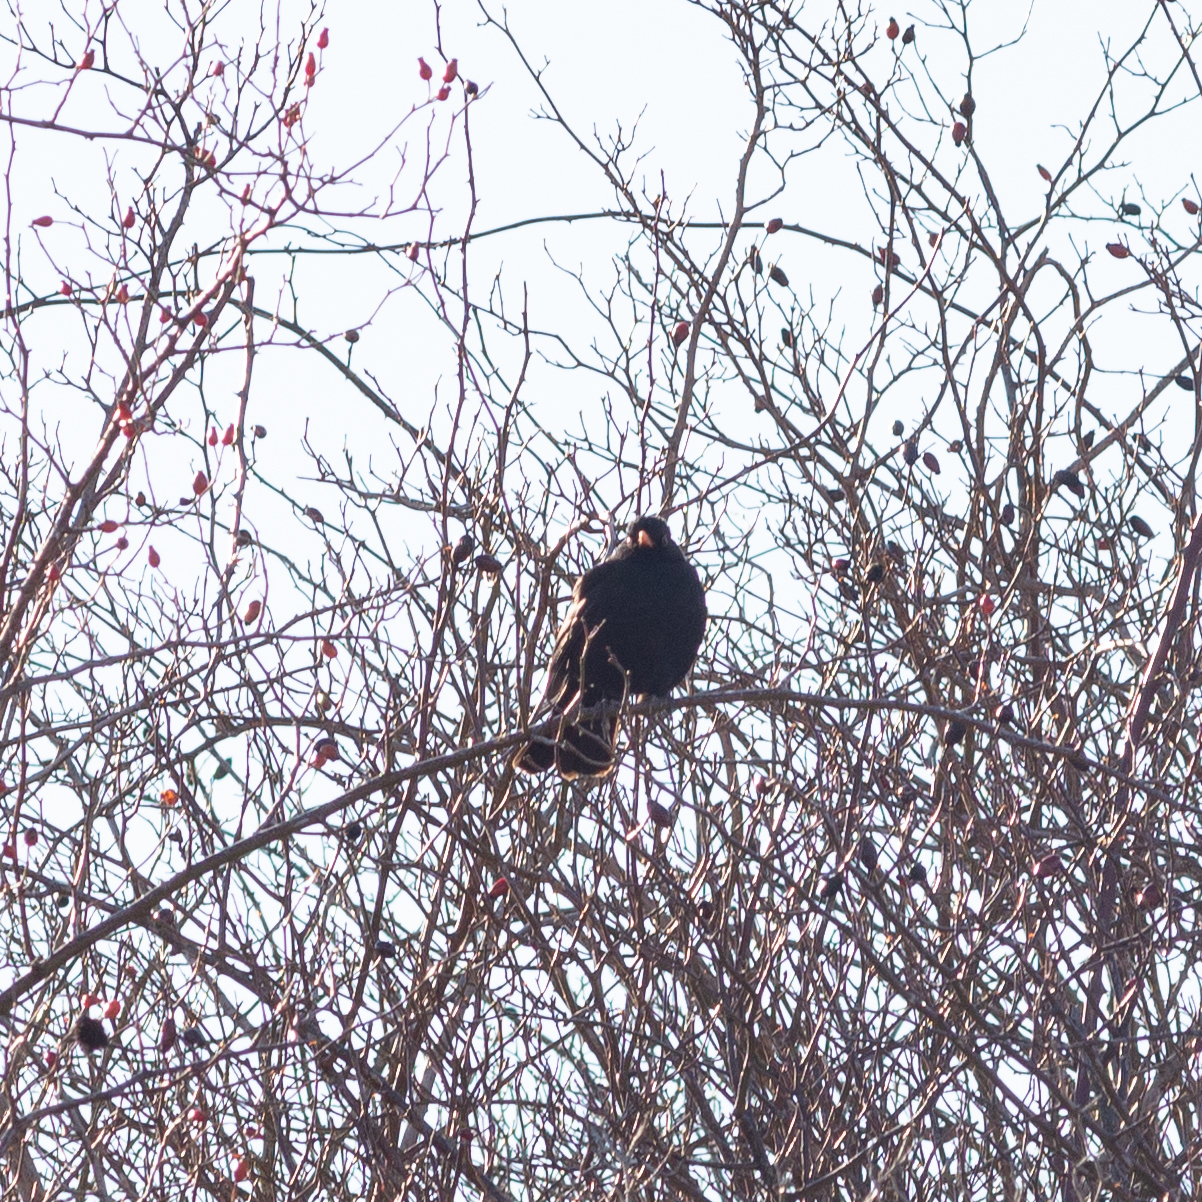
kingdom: Animalia
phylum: Chordata
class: Aves
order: Passeriformes
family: Turdidae
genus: Turdus
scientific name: Turdus merula
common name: Common blackbird
